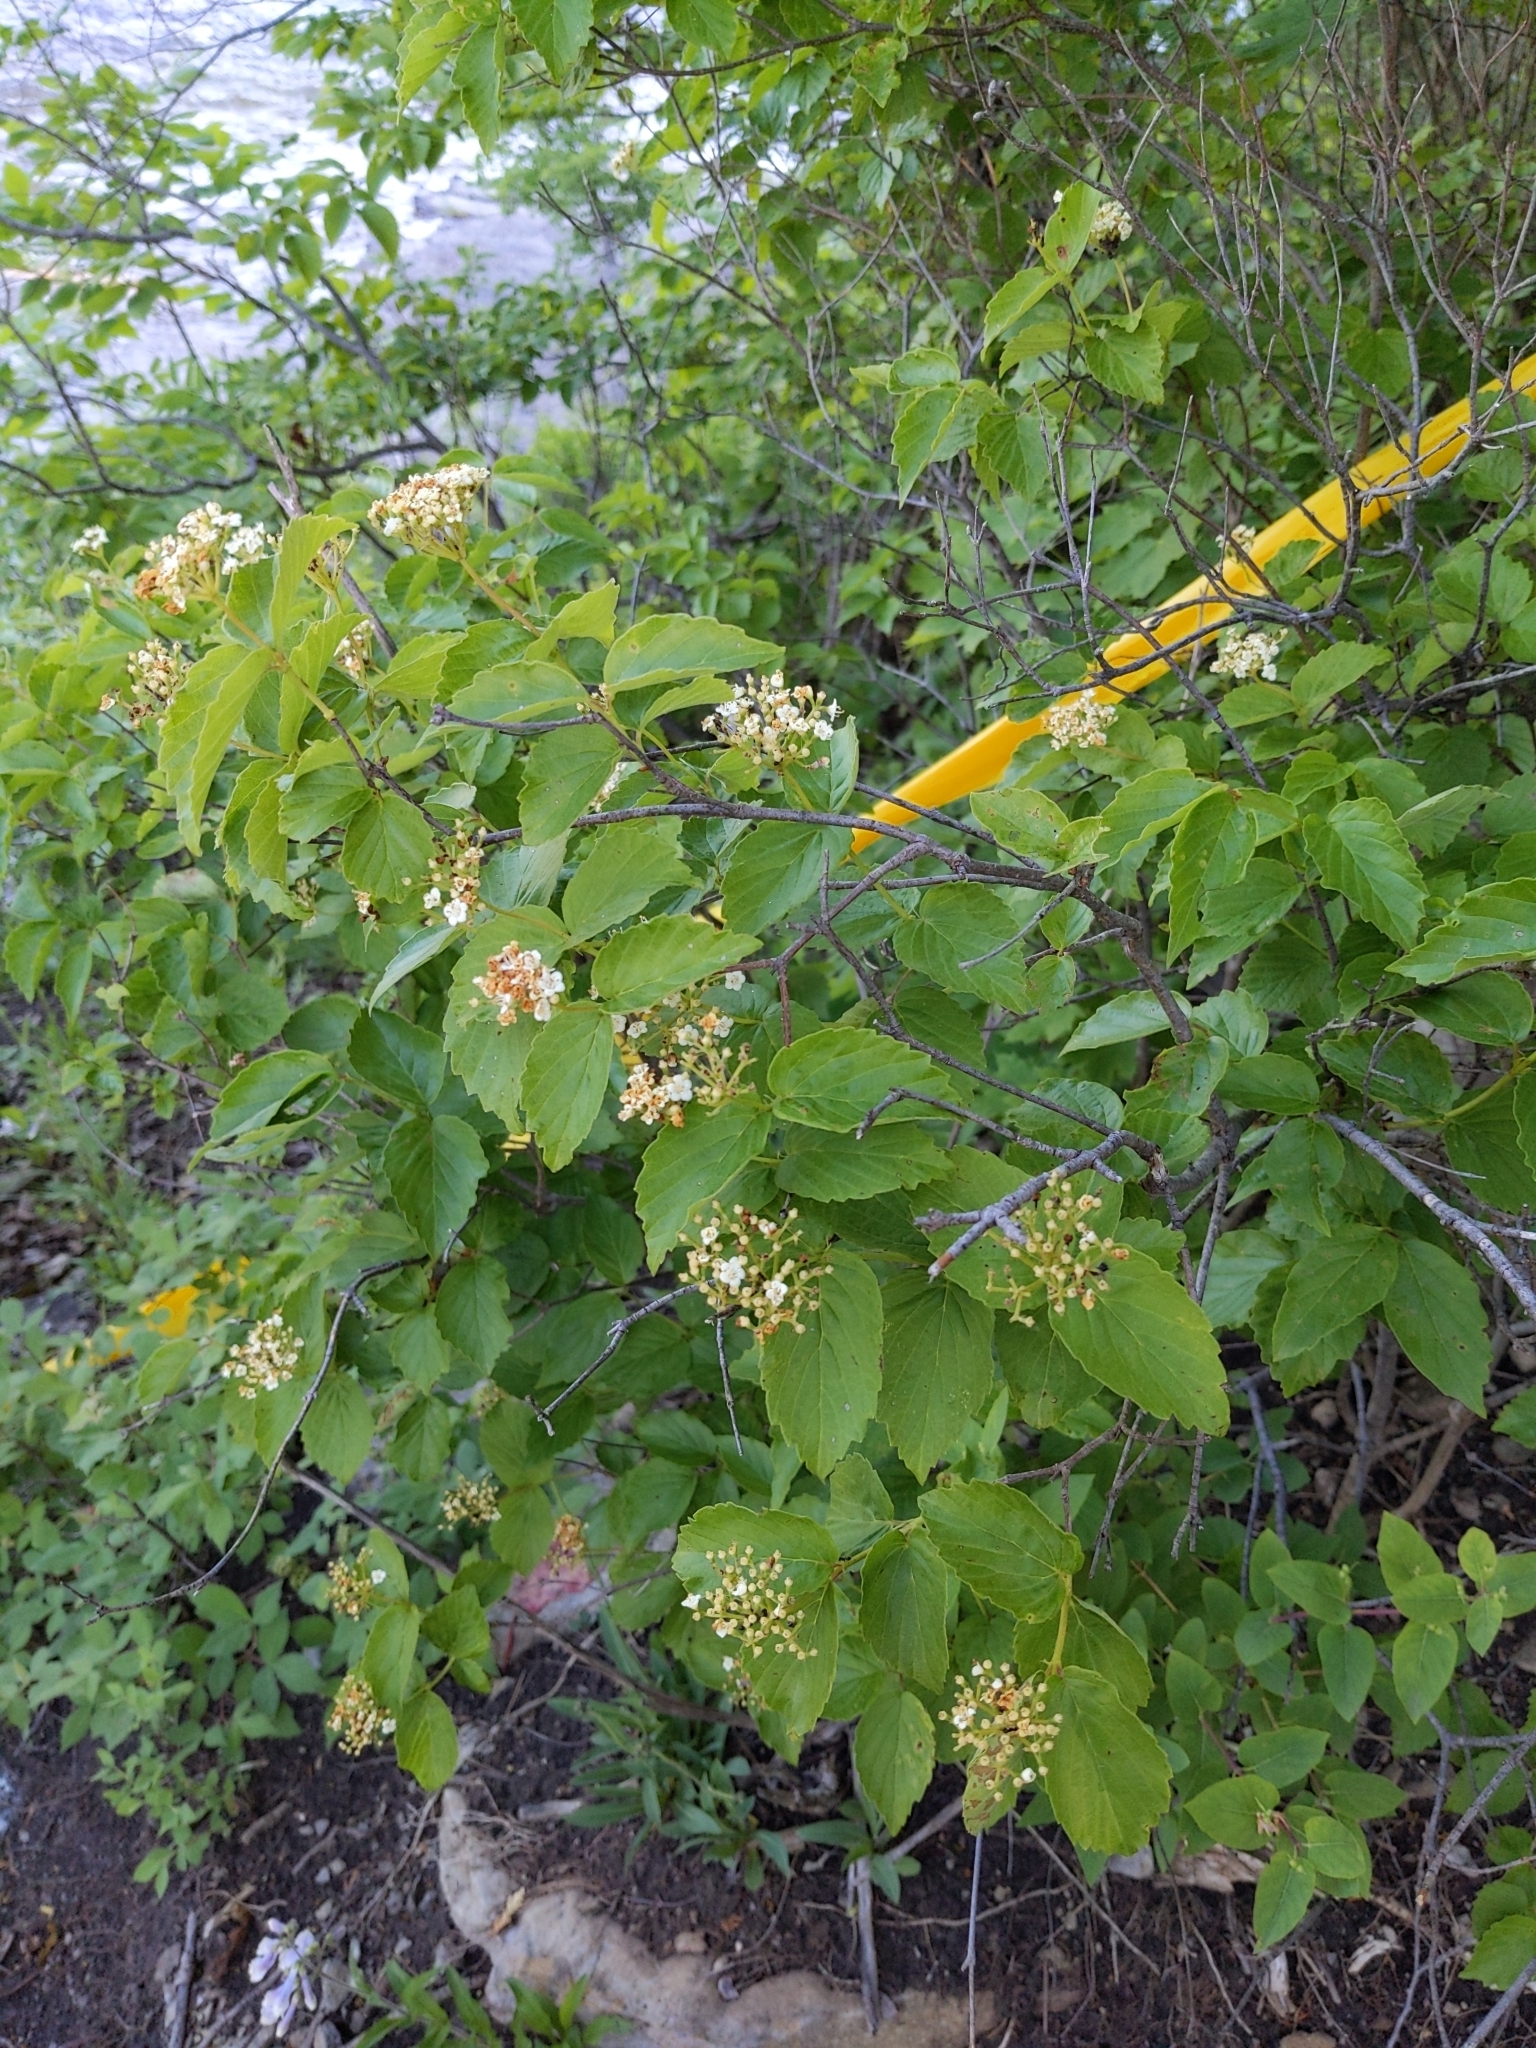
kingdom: Plantae
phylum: Tracheophyta
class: Magnoliopsida
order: Dipsacales
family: Viburnaceae
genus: Viburnum
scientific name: Viburnum rafinesqueanum
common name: Downy arrow-wood
